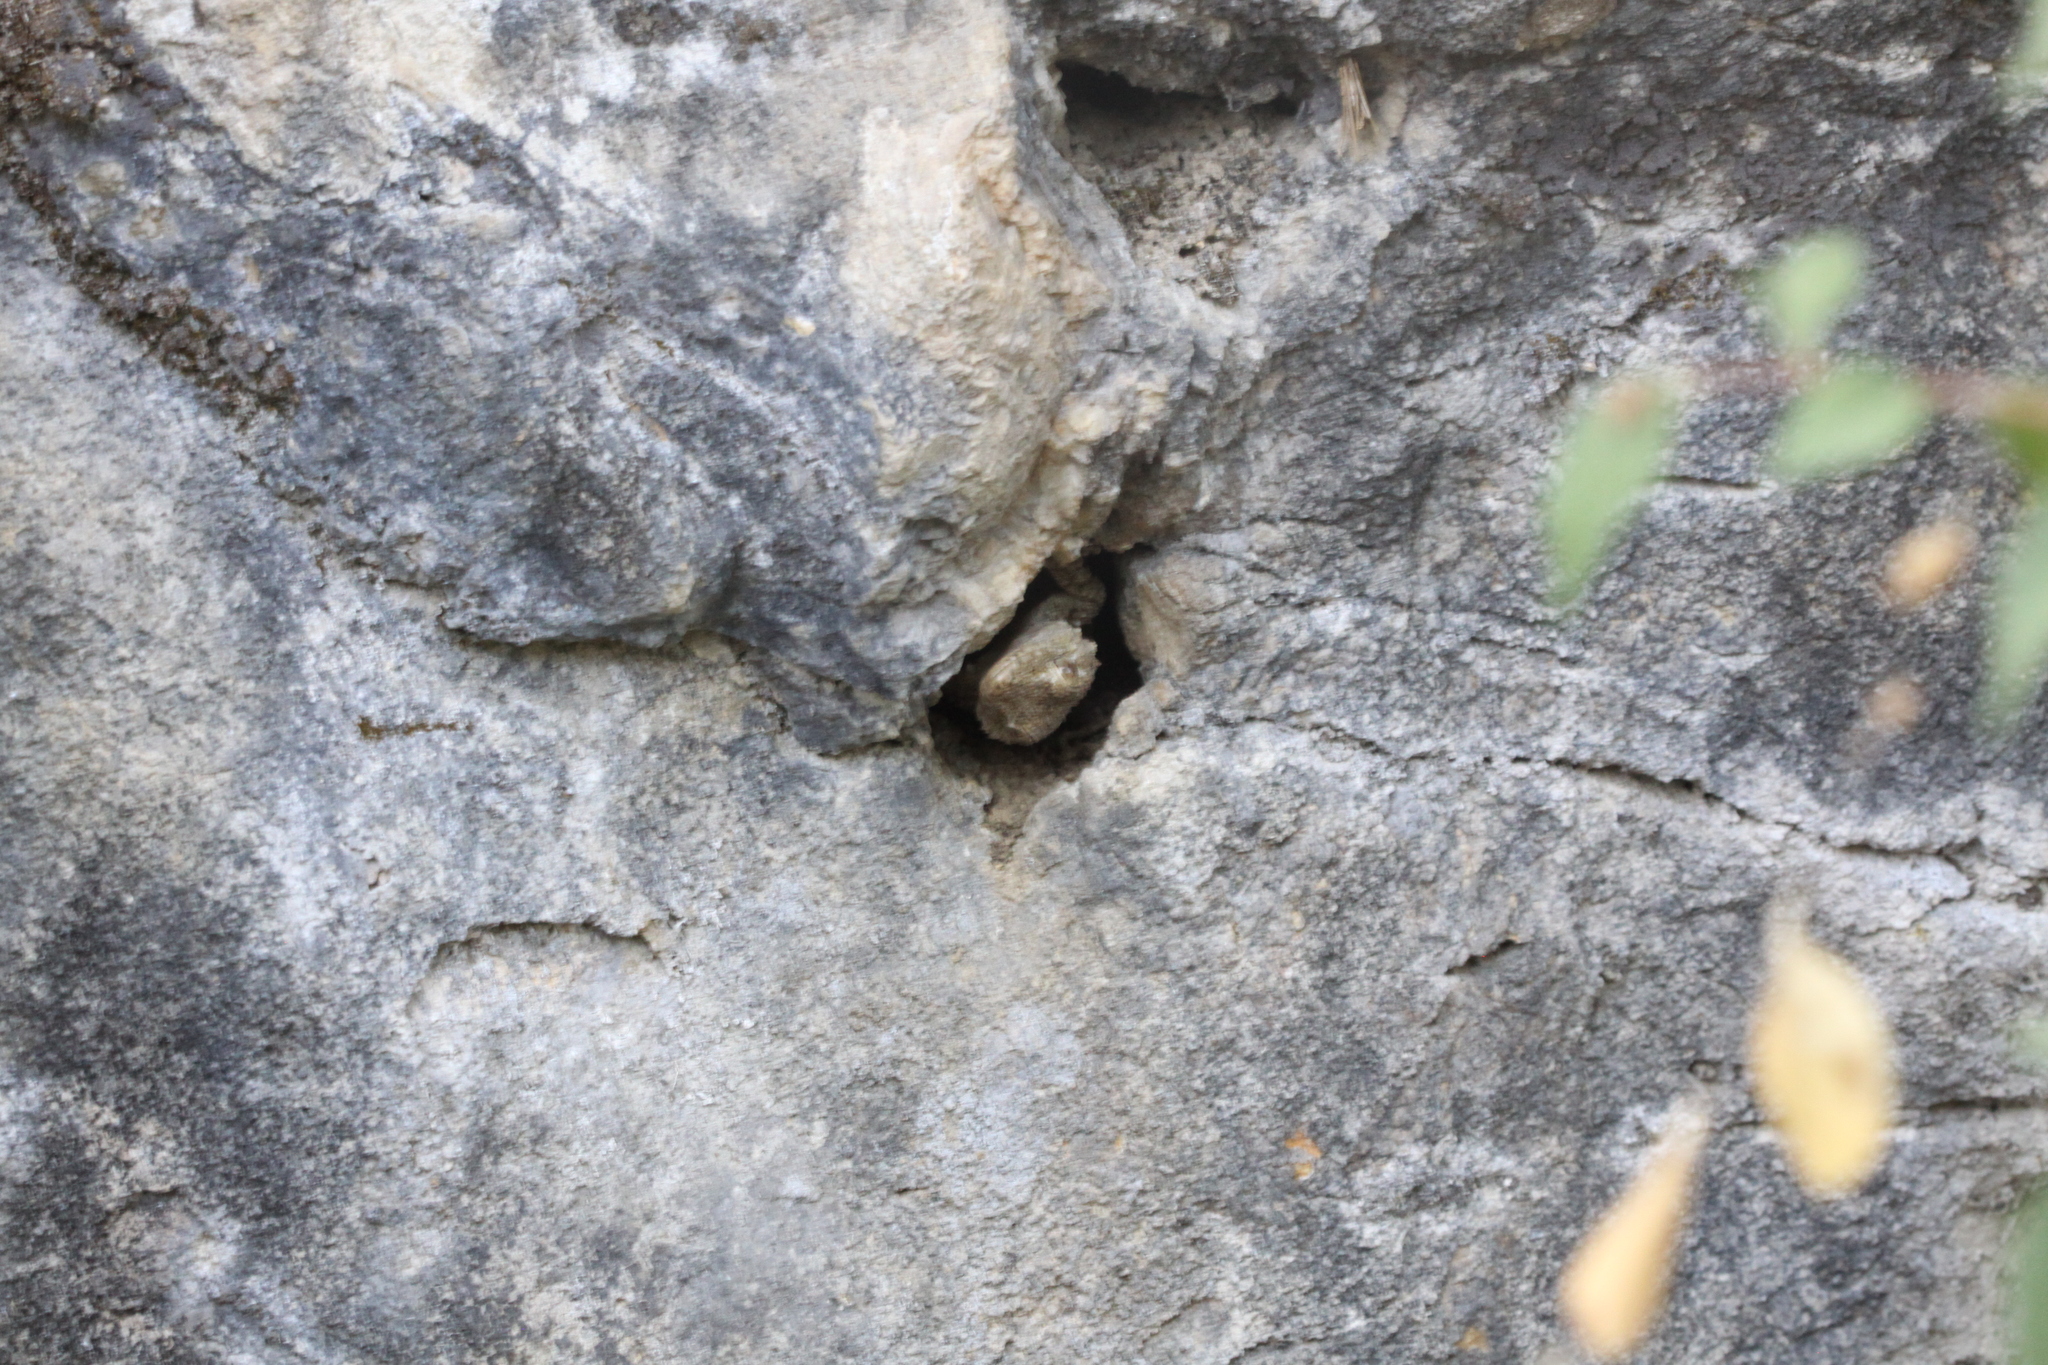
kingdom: Animalia
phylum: Chordata
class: Squamata
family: Phyllodactylidae
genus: Tarentola
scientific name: Tarentola mauritanica
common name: Moorish gecko
